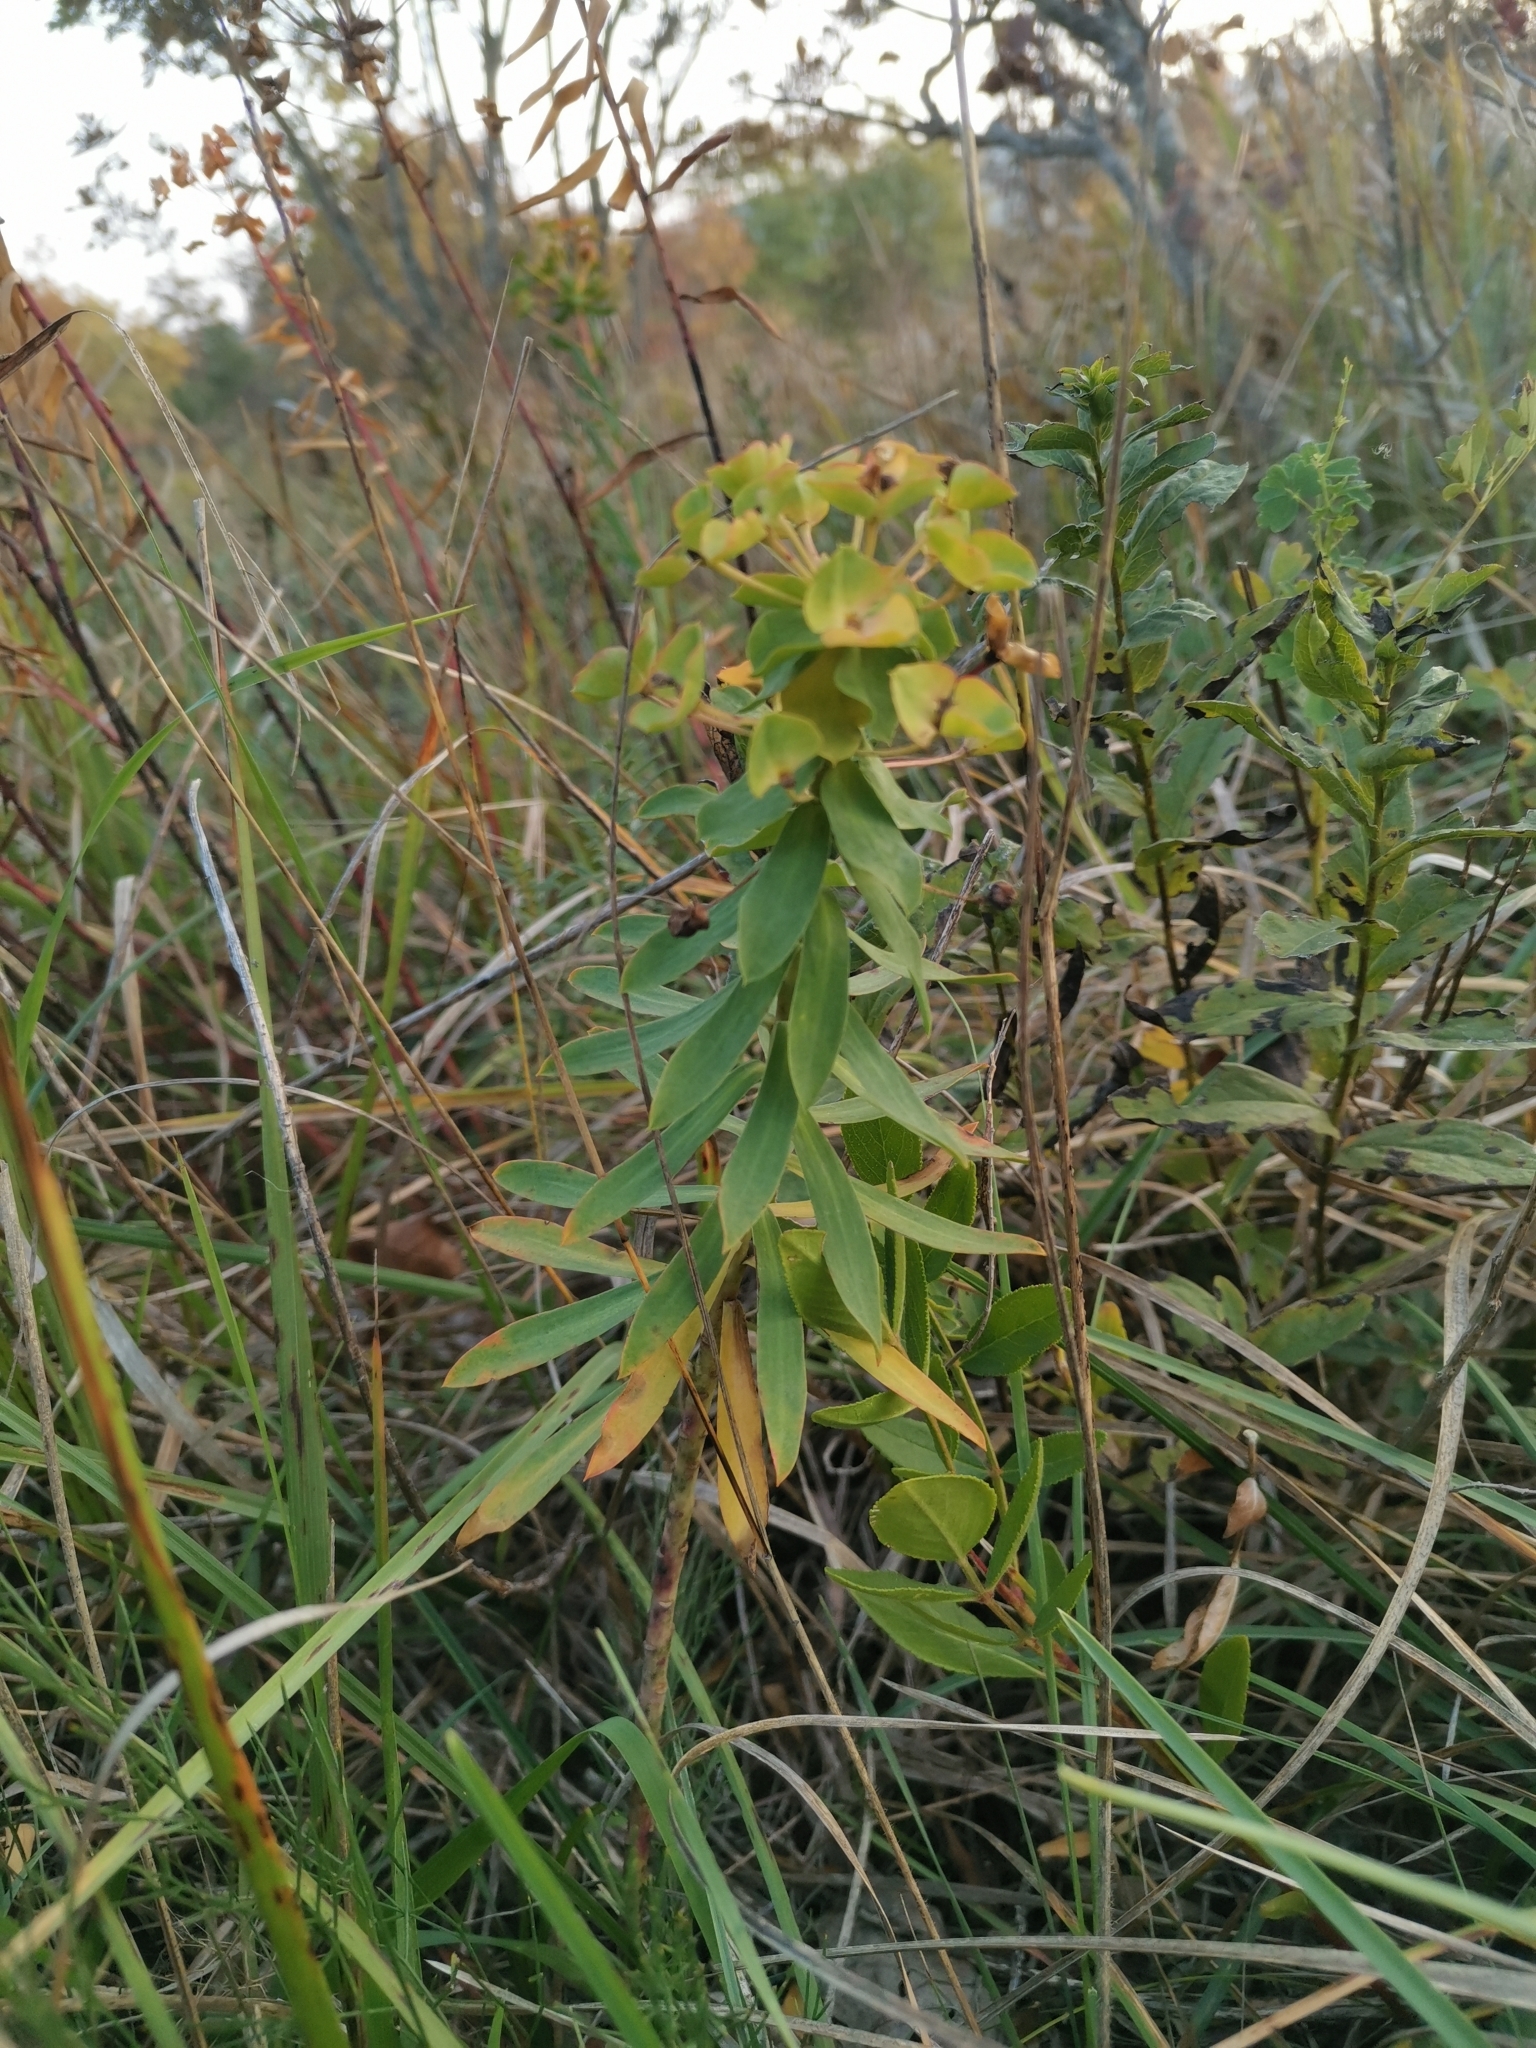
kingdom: Plantae
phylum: Tracheophyta
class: Magnoliopsida
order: Malpighiales
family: Euphorbiaceae
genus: Euphorbia
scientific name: Euphorbia nicaeensis
